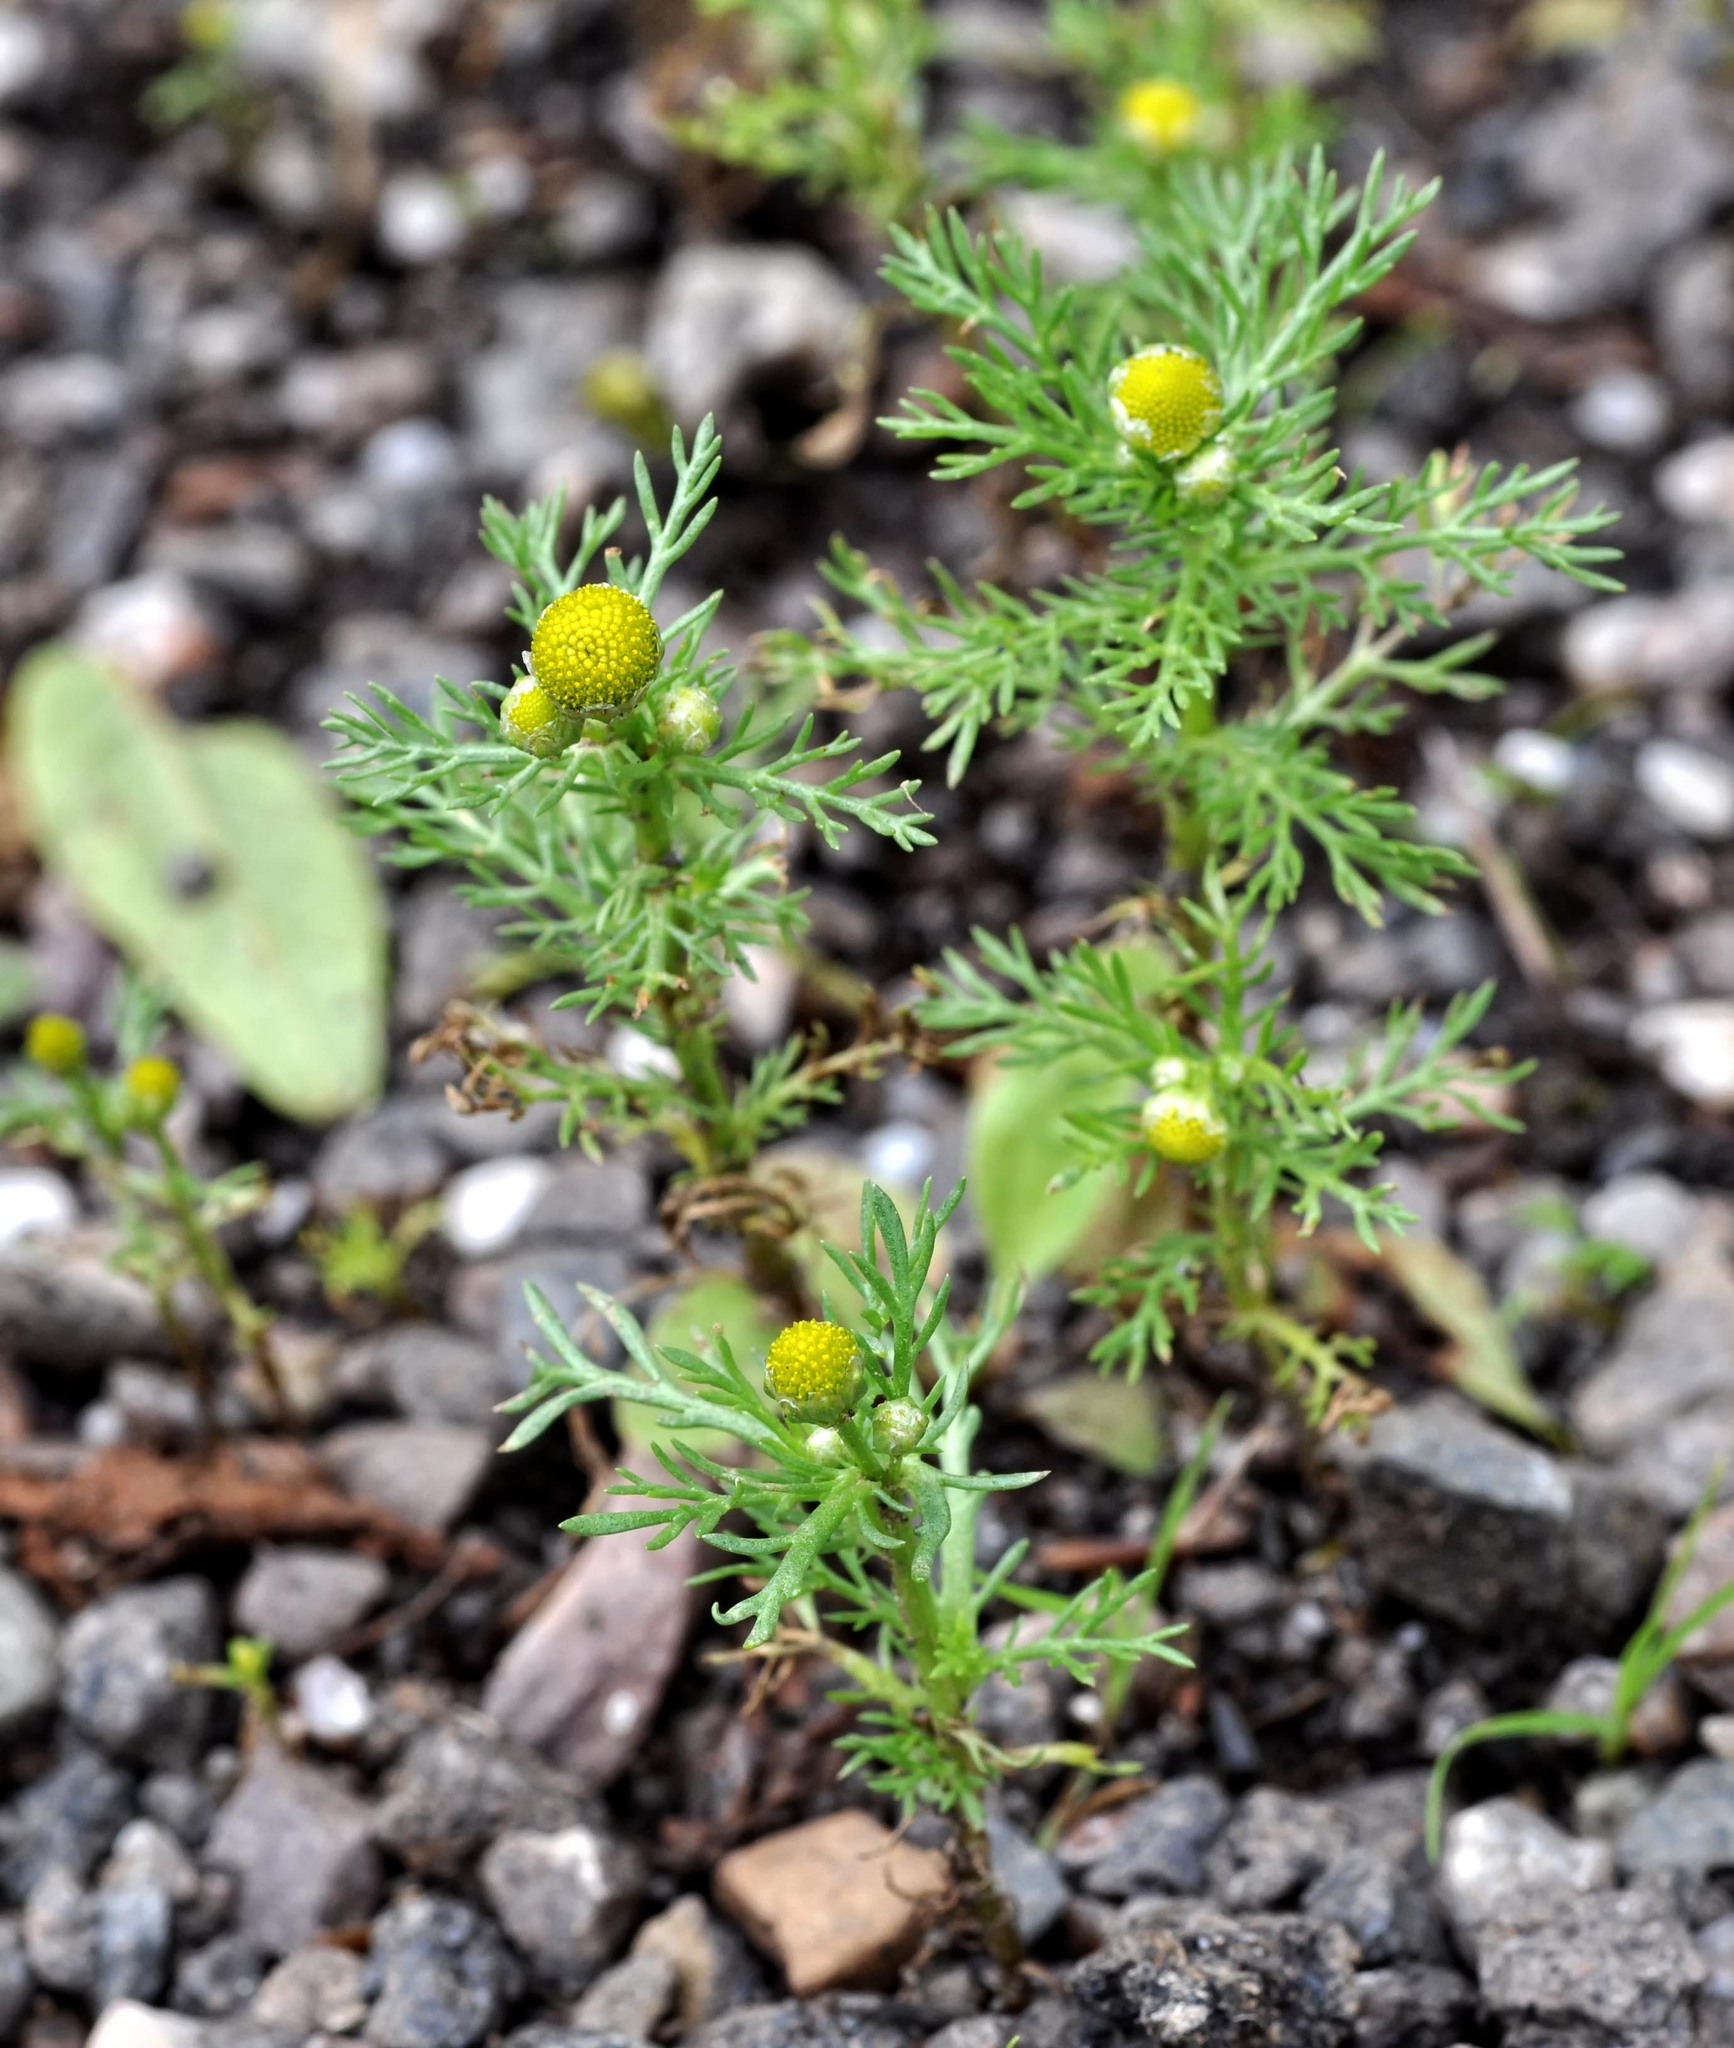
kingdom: Plantae
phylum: Tracheophyta
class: Magnoliopsida
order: Asterales
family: Asteraceae
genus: Matricaria
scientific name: Matricaria discoidea
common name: Disc mayweed
